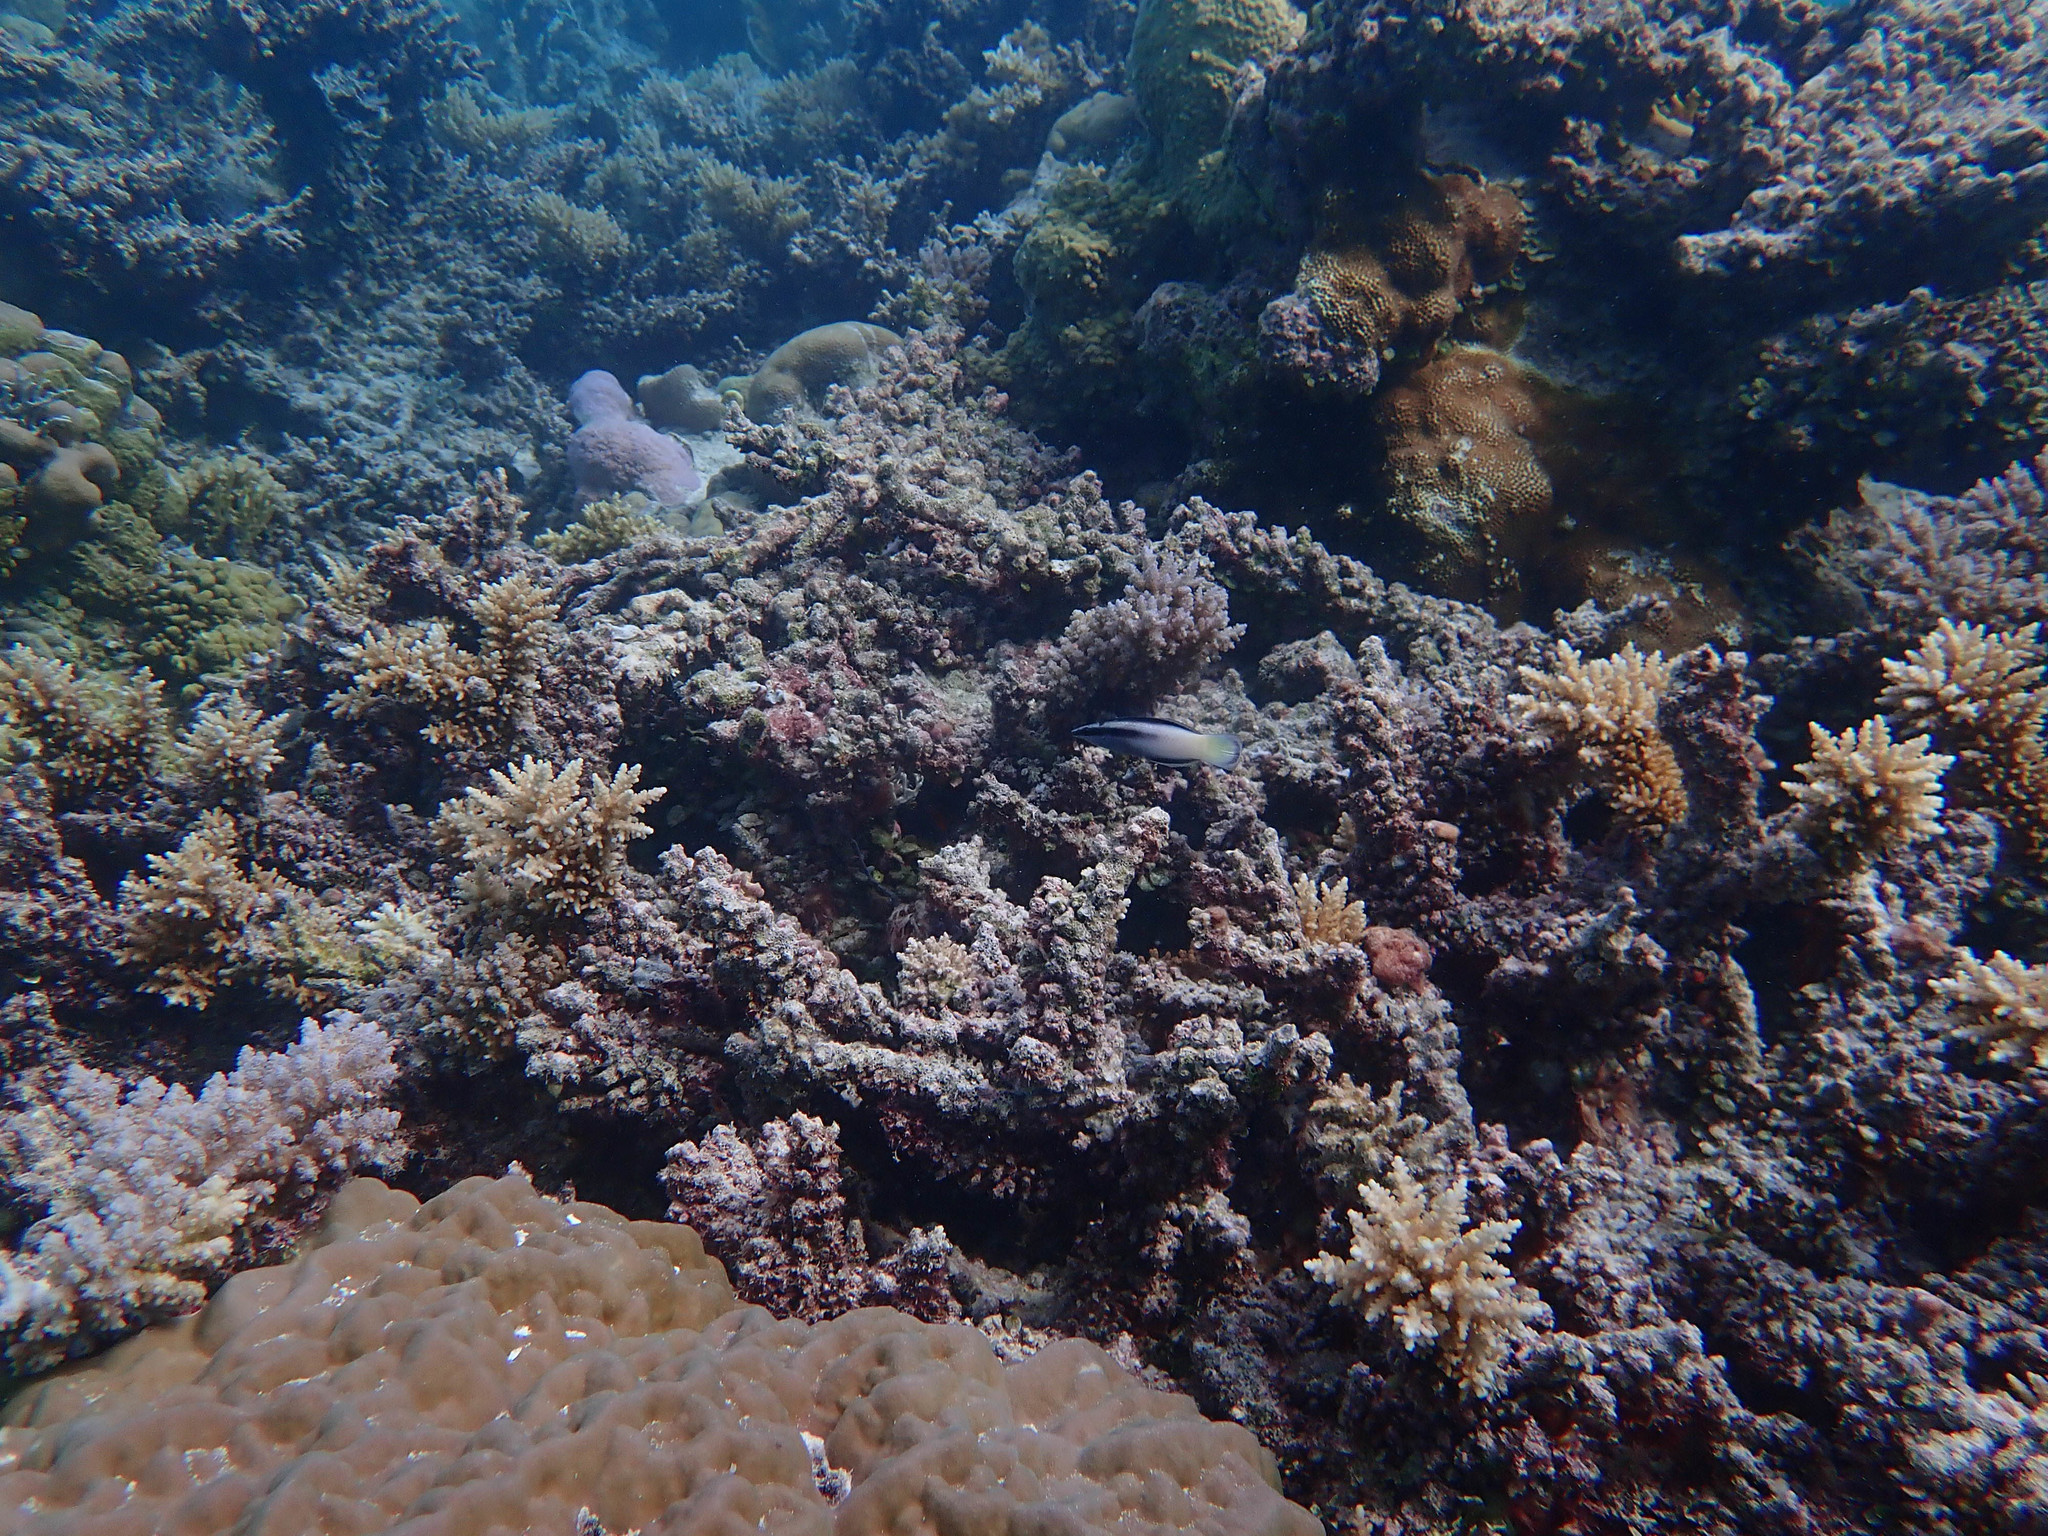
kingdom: Animalia
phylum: Chordata
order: Perciformes
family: Labridae
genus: Labroides
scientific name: Labroides bicolor
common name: Bicolor cleaner wrasse
